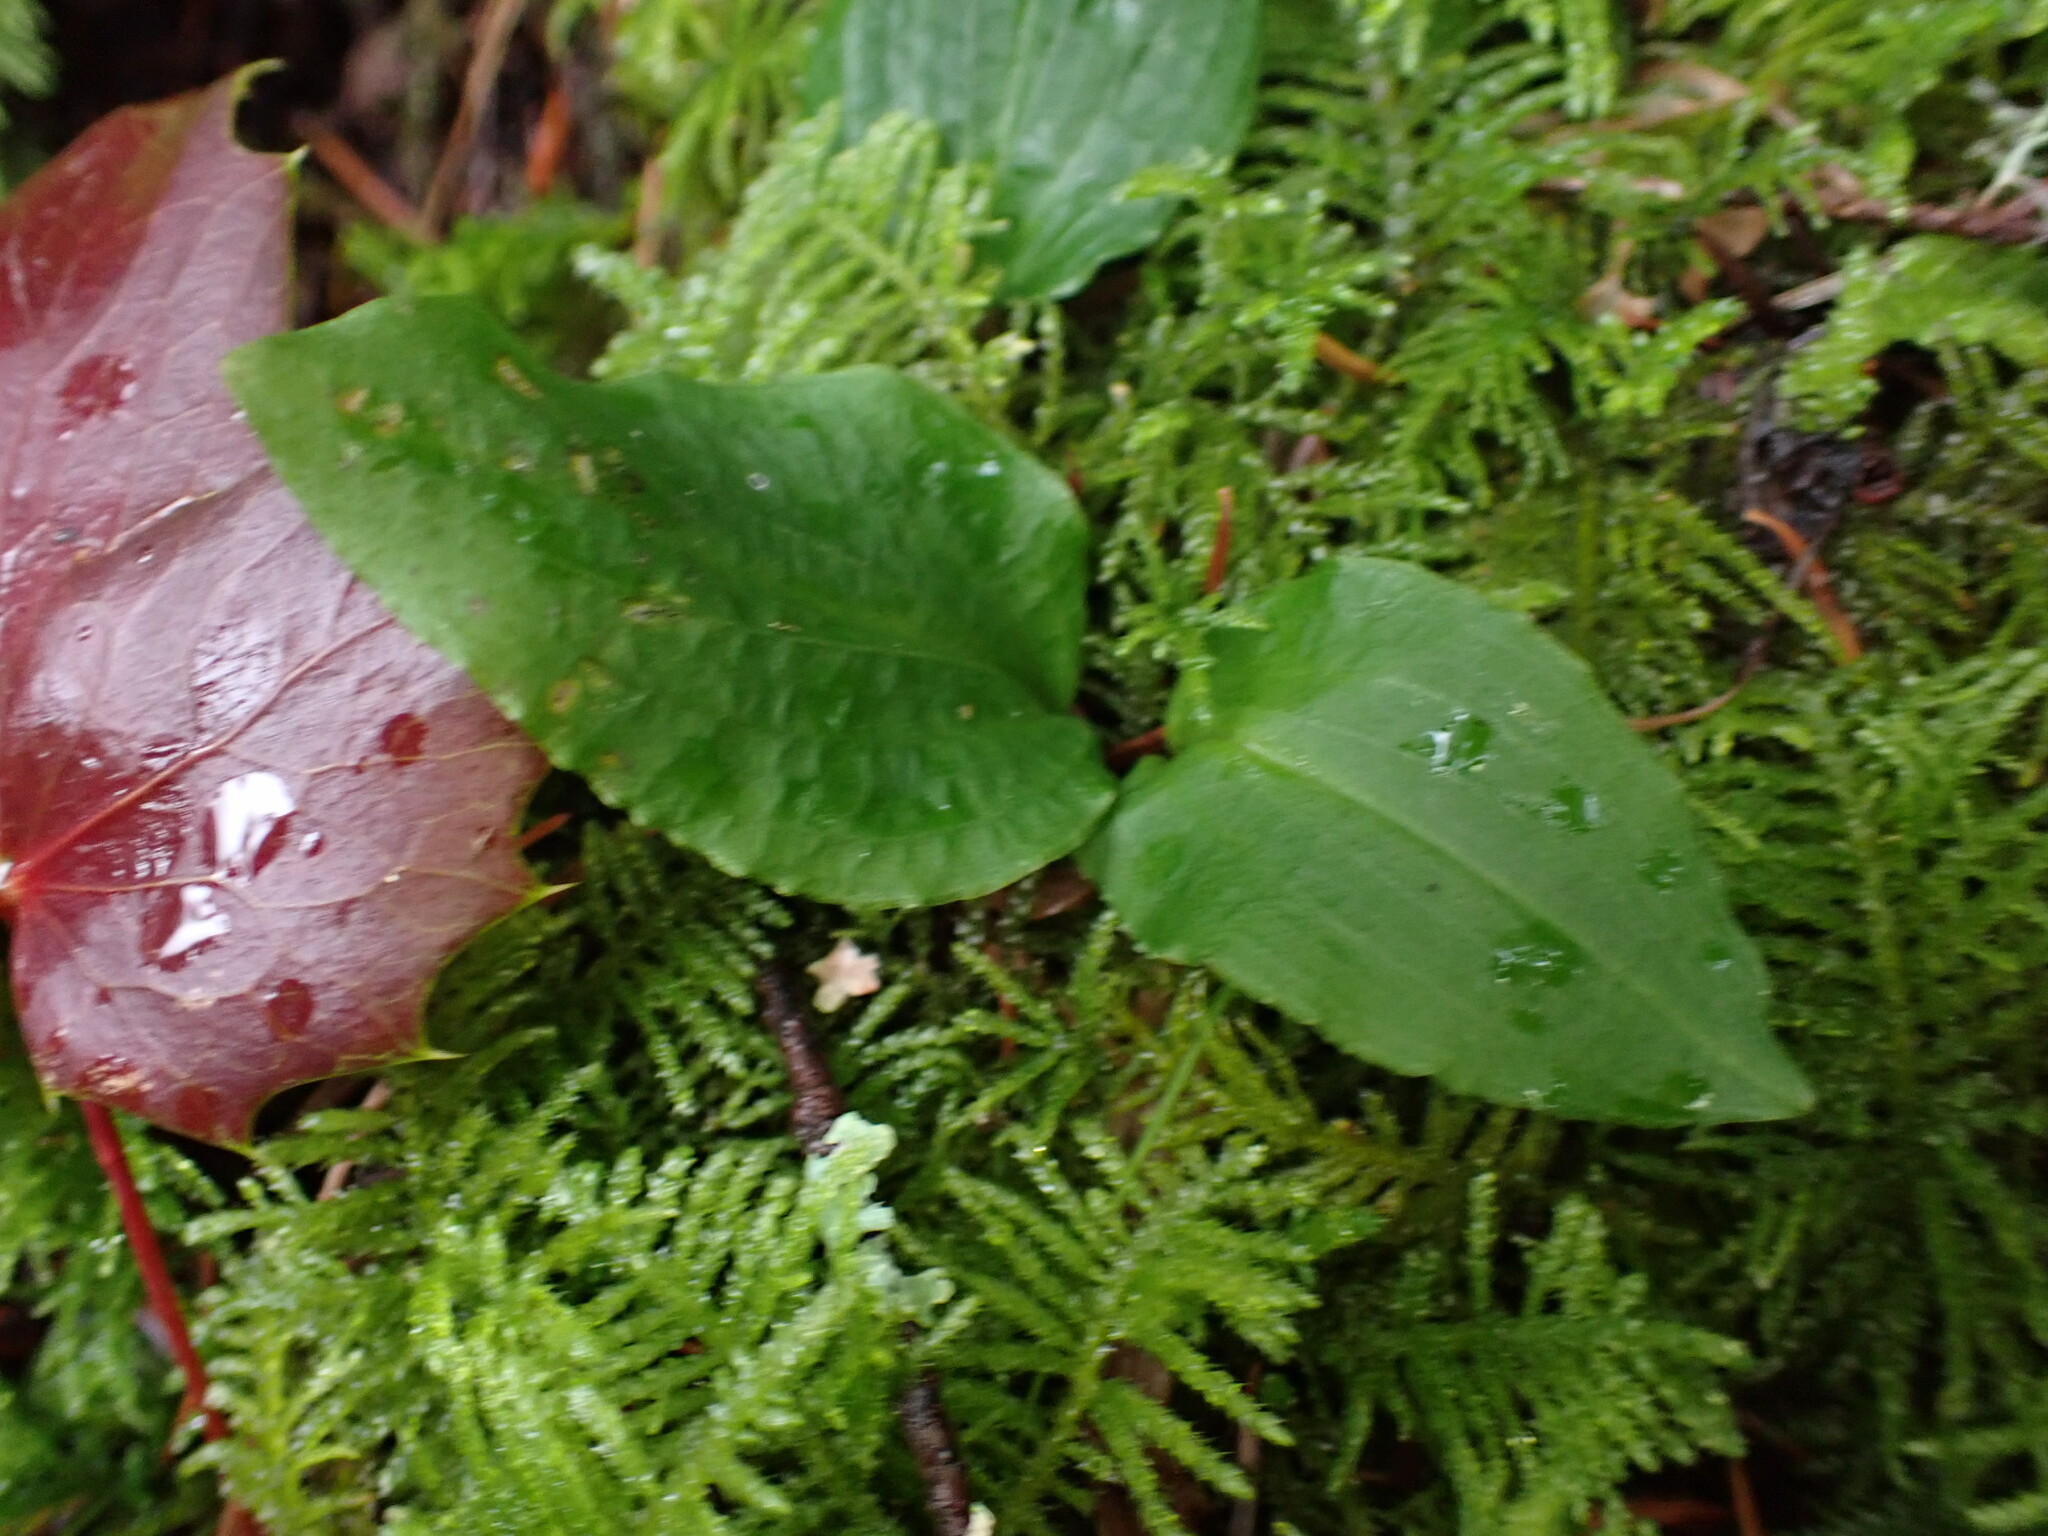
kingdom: Plantae
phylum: Tracheophyta
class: Liliopsida
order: Asparagales
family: Orchidaceae
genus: Calypso
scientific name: Calypso bulbosa
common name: Calypso
